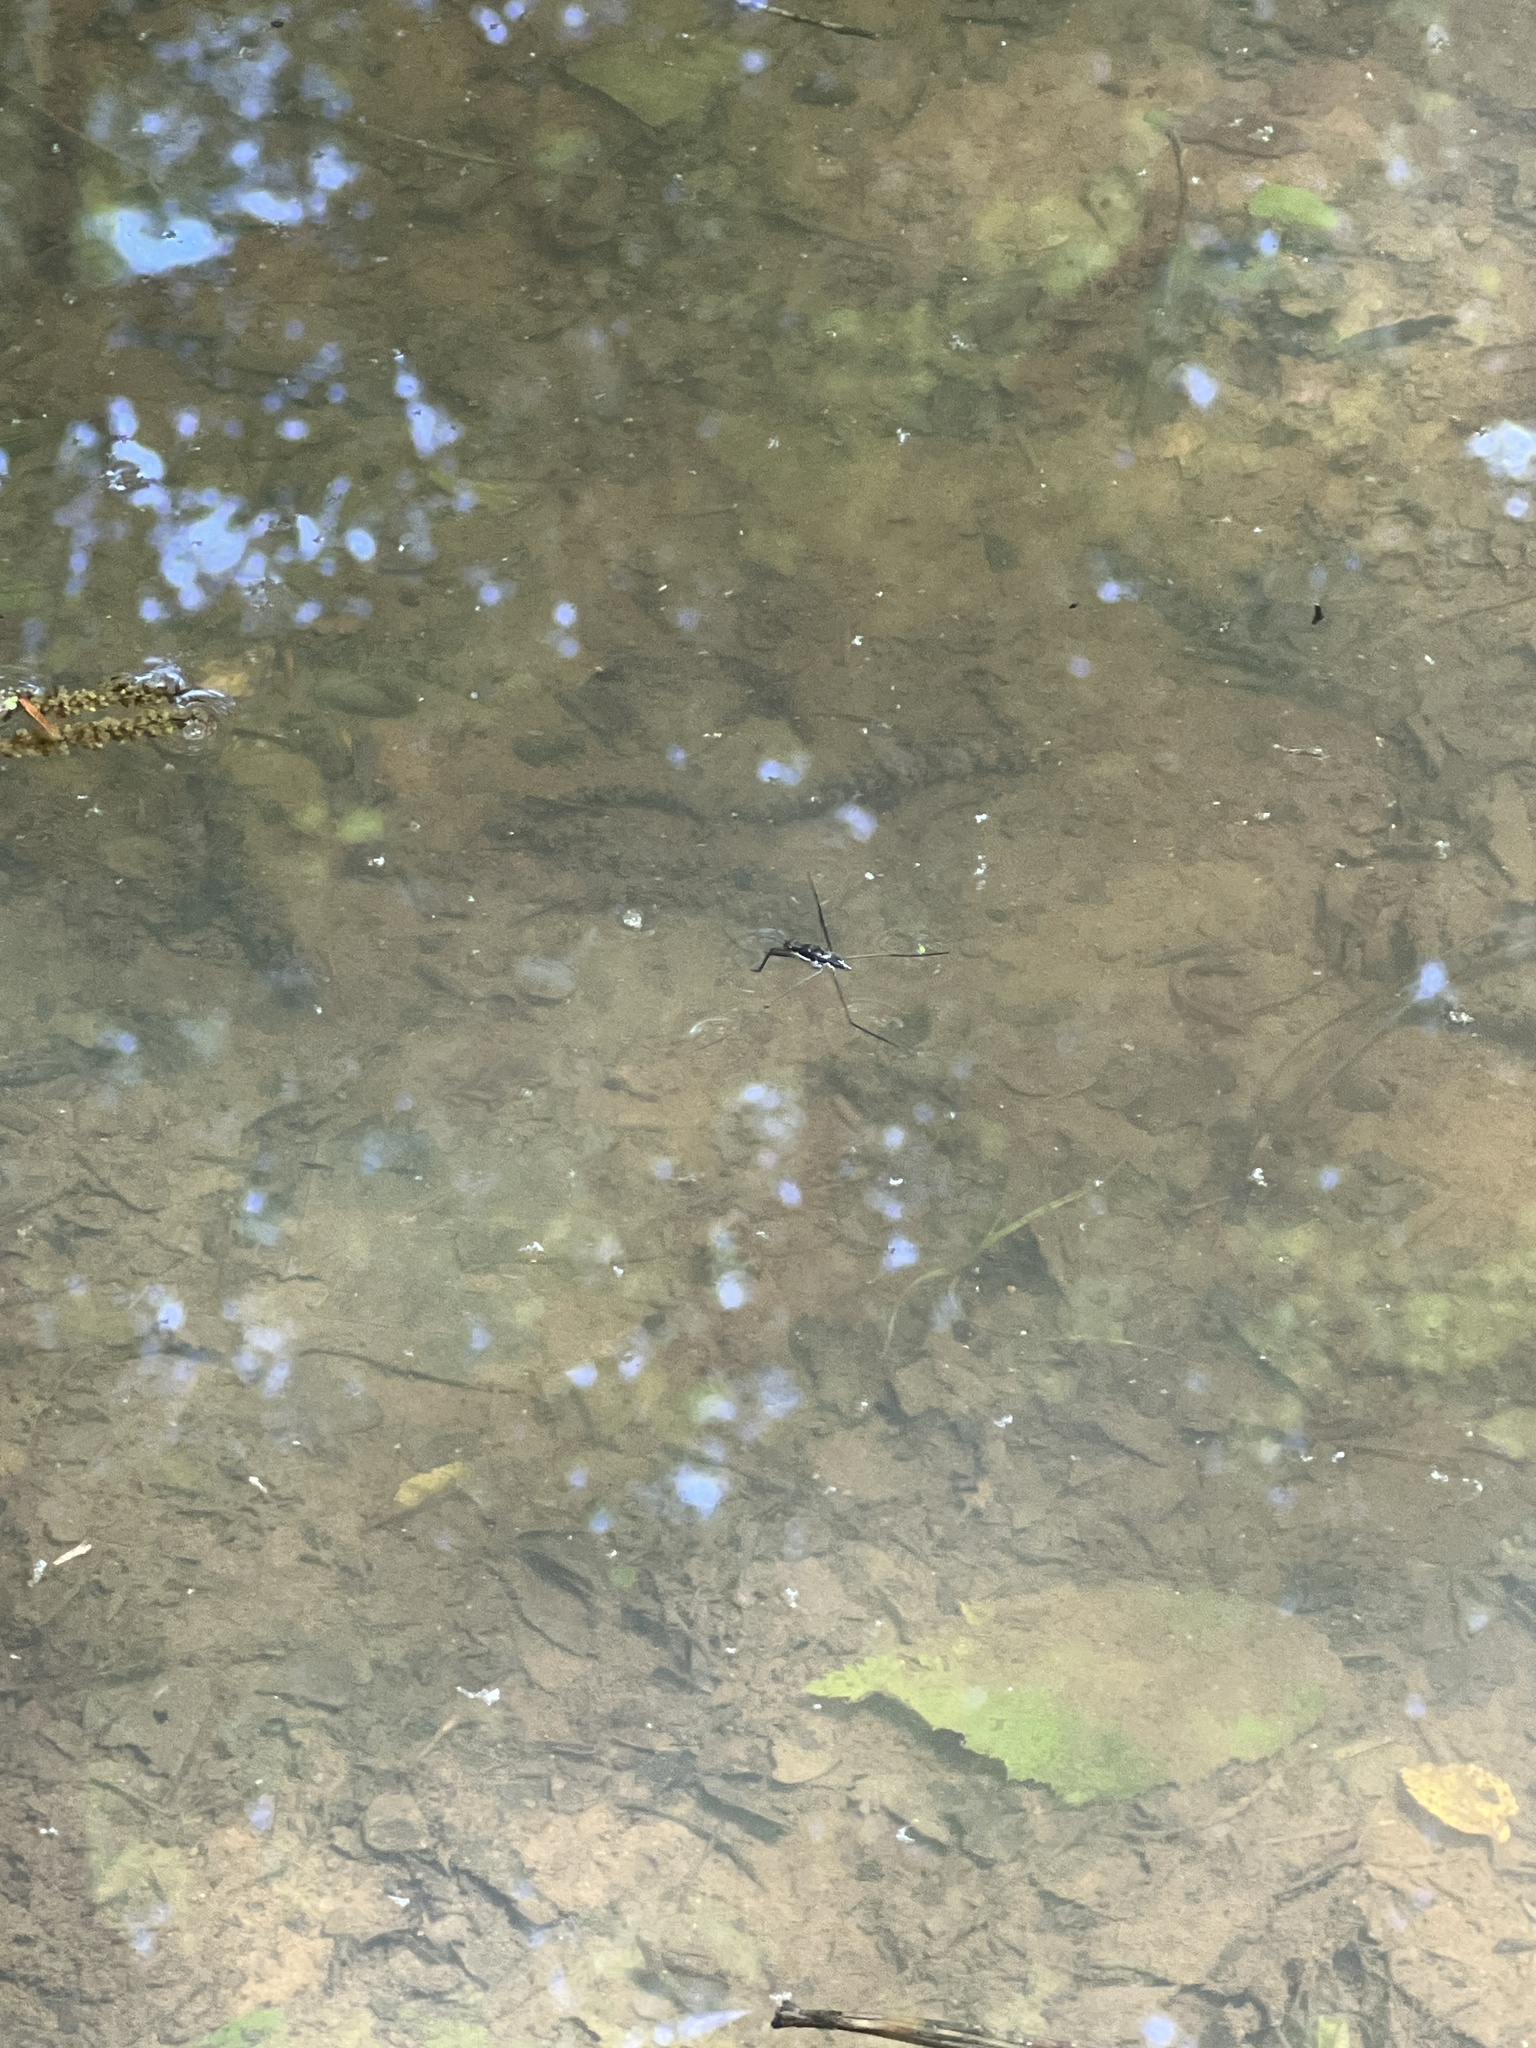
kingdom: Animalia
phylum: Arthropoda
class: Insecta
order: Hemiptera
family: Gerridae
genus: Aquarius
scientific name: Aquarius
